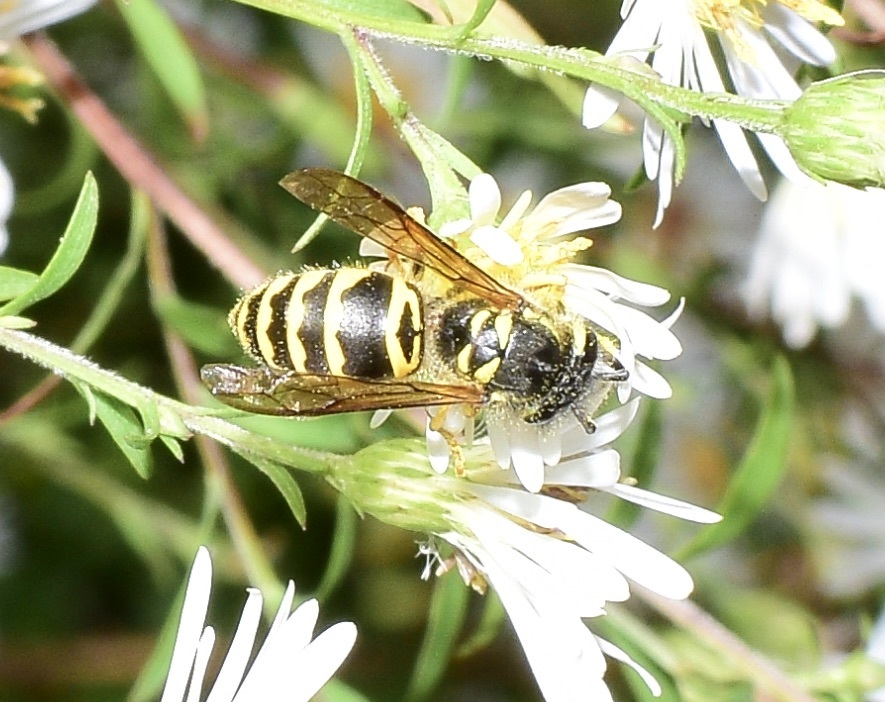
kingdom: Animalia
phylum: Arthropoda
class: Insecta
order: Hymenoptera
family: Vespidae
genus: Vespula
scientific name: Vespula maculifrons
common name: Eastern yellowjacket
